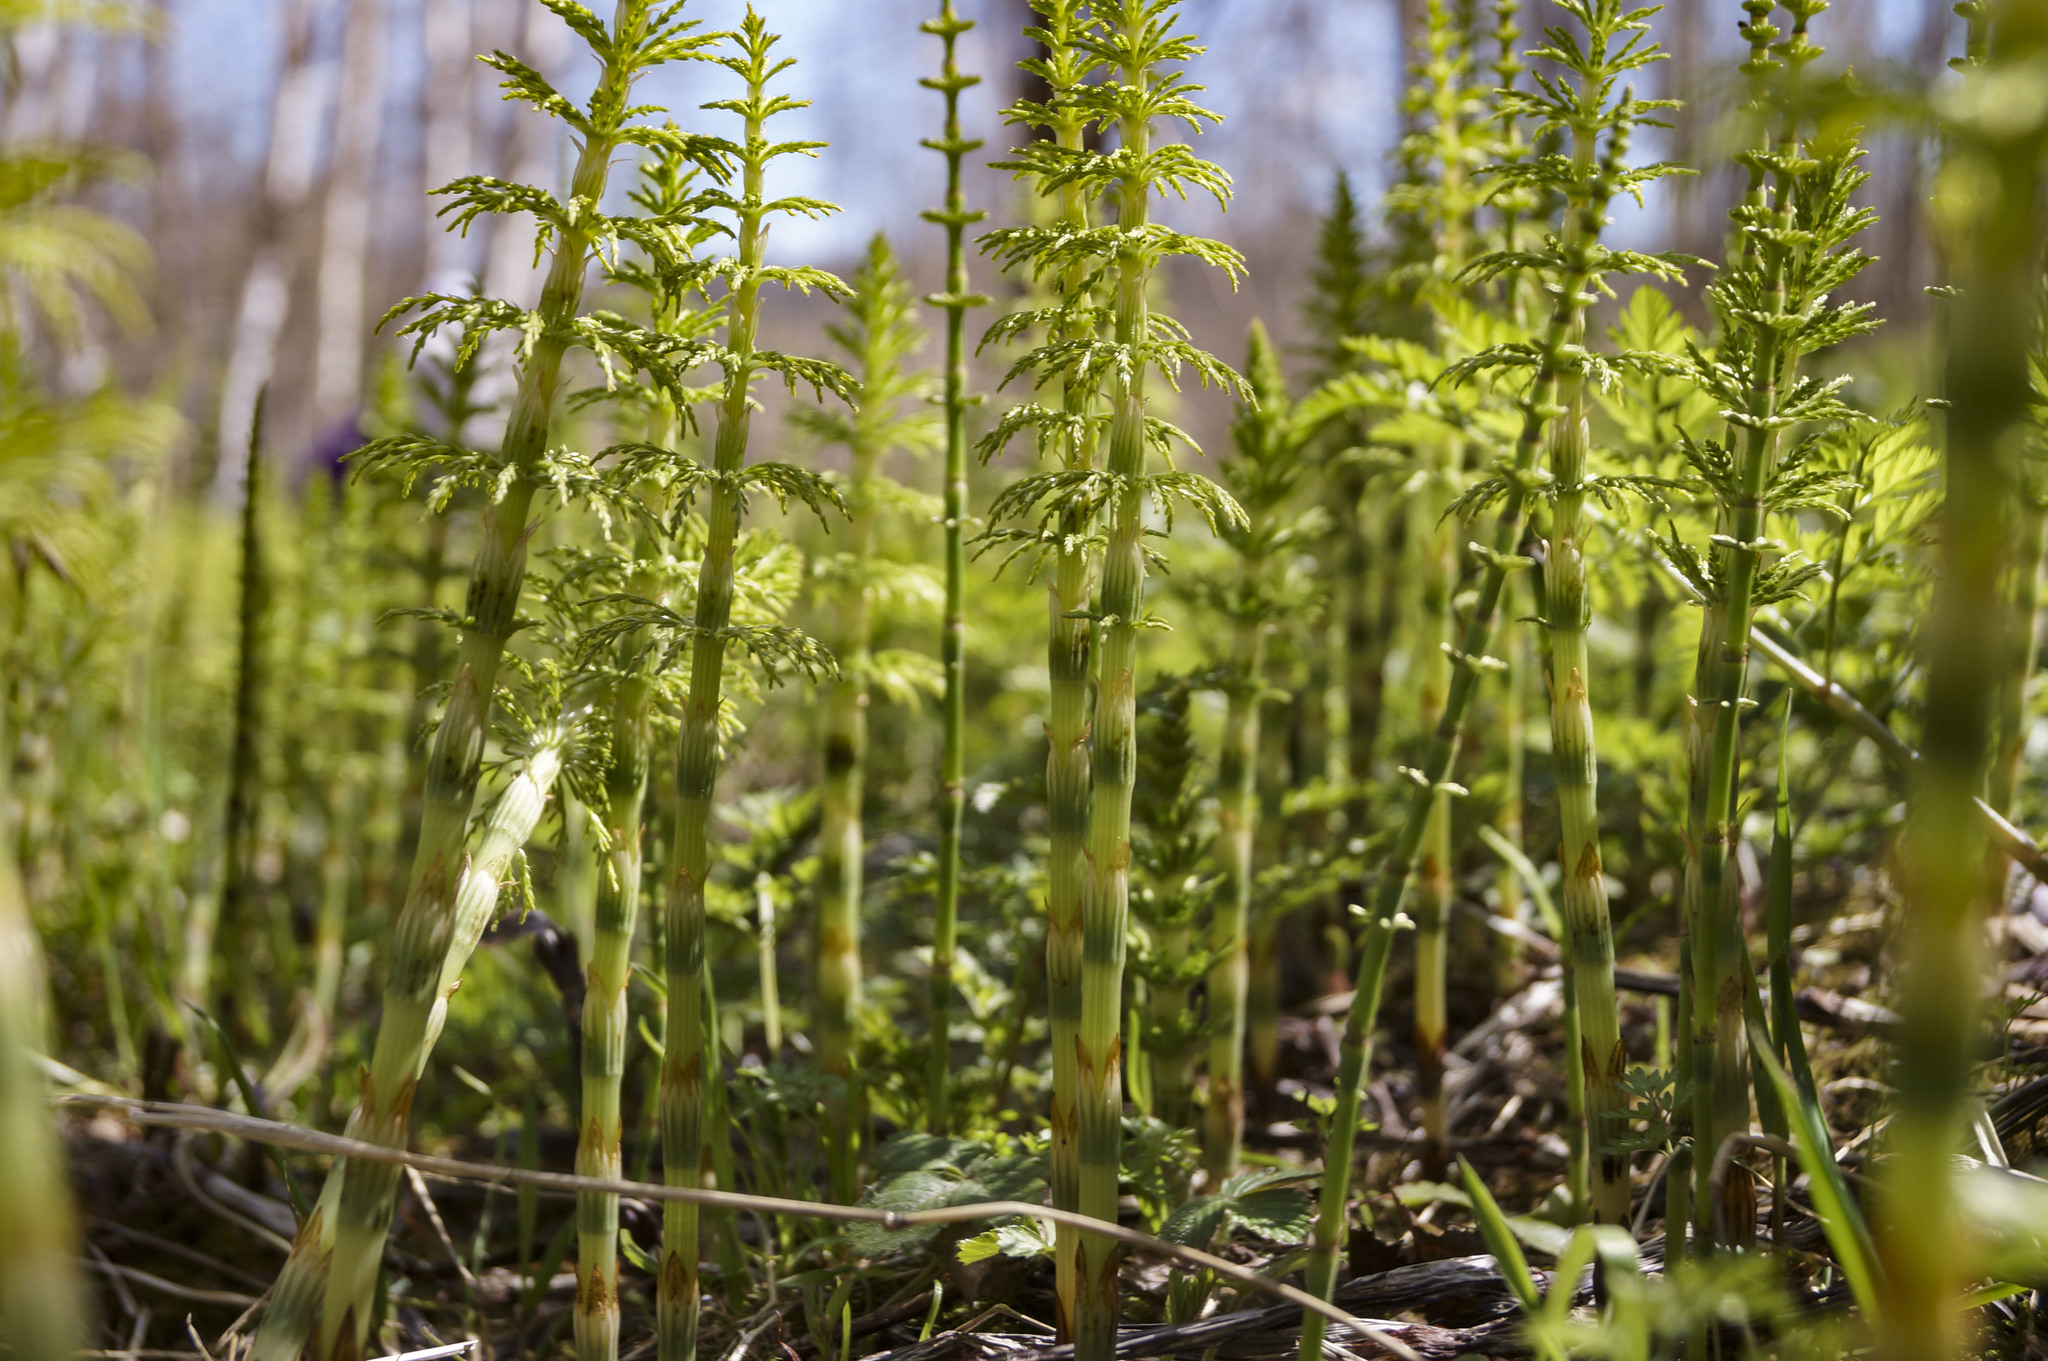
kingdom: Plantae
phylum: Tracheophyta
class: Polypodiopsida
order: Equisetales
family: Equisetaceae
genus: Equisetum
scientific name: Equisetum sylvaticum
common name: Wood horsetail
